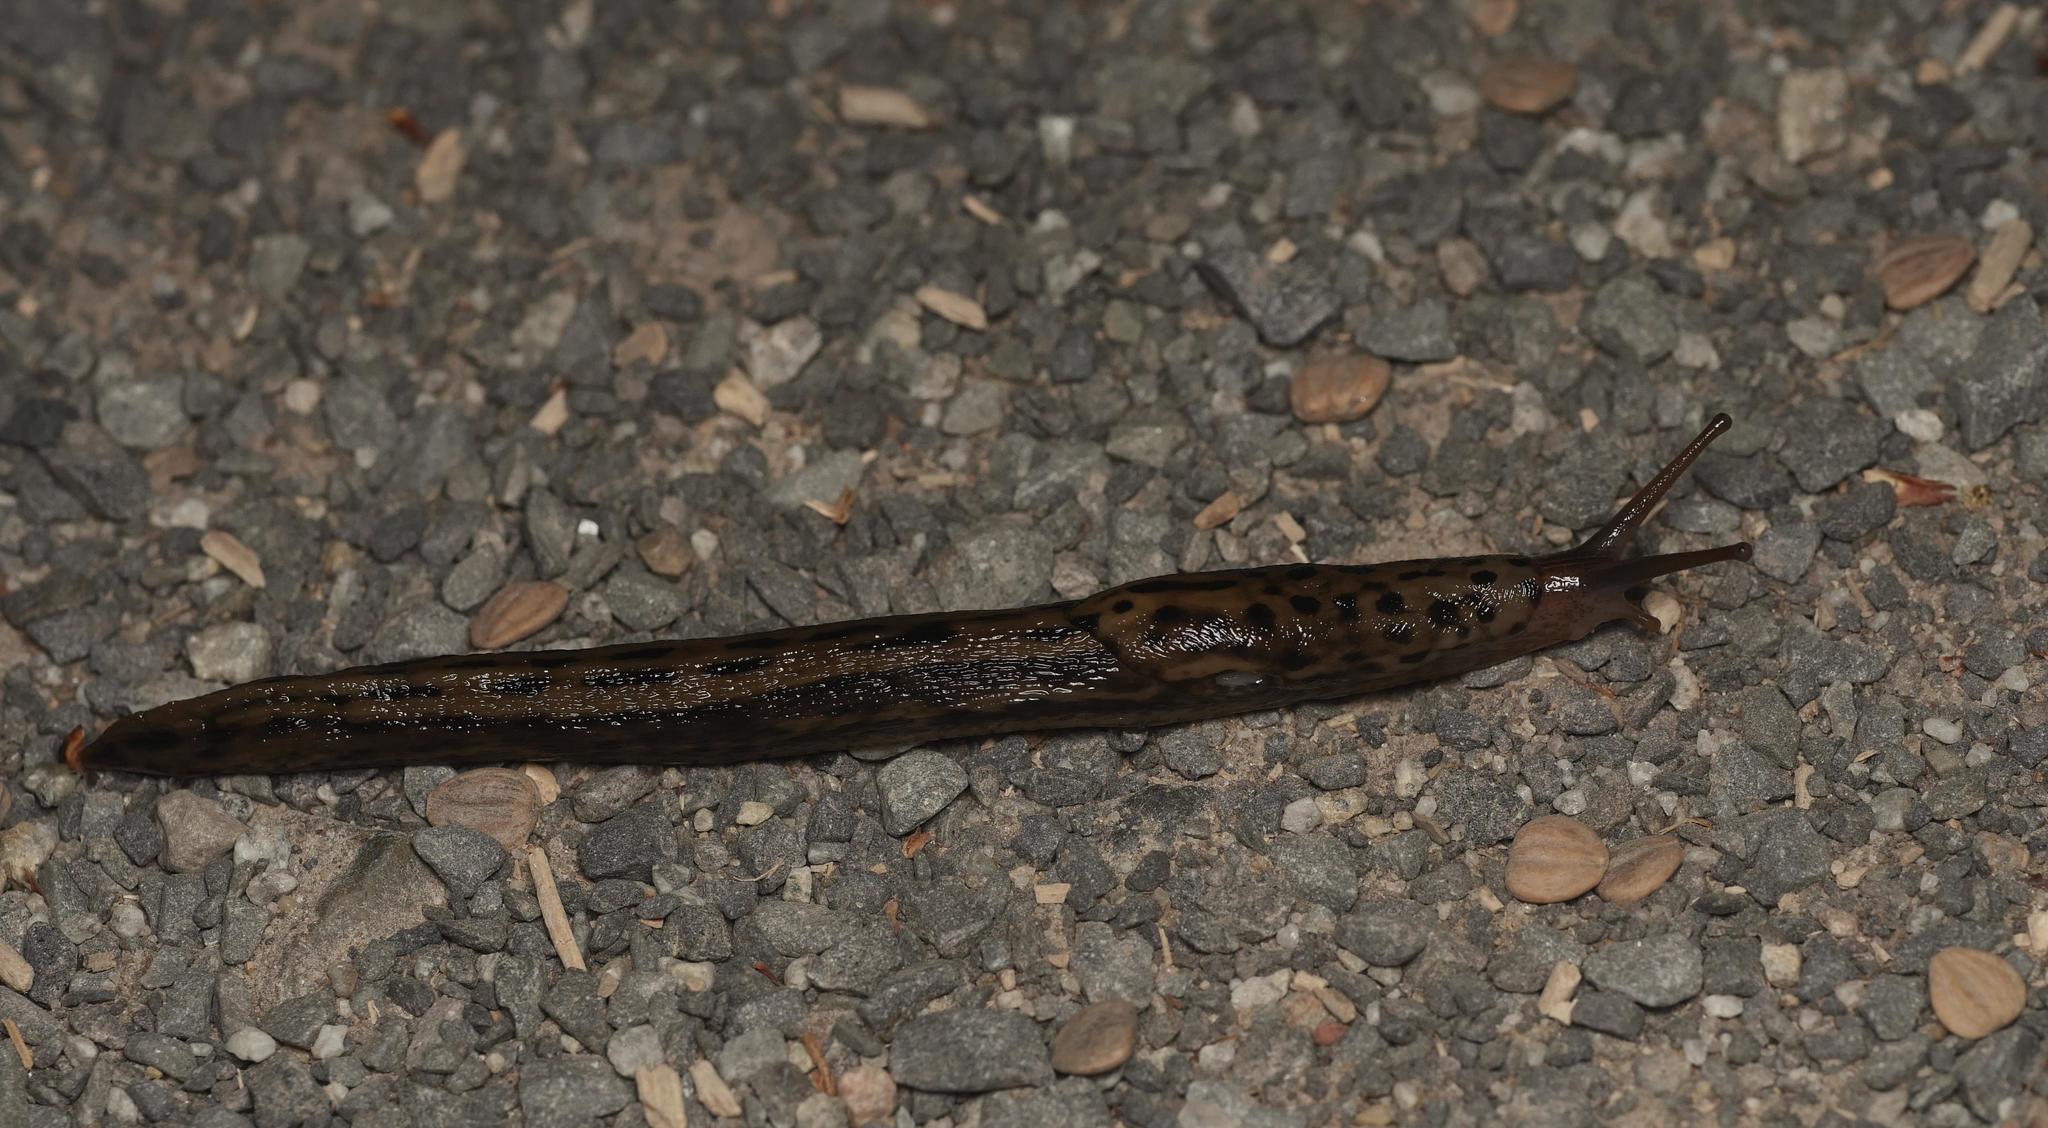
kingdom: Animalia
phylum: Mollusca
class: Gastropoda
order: Stylommatophora
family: Limacidae
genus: Limax
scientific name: Limax maximus
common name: Great grey slug
